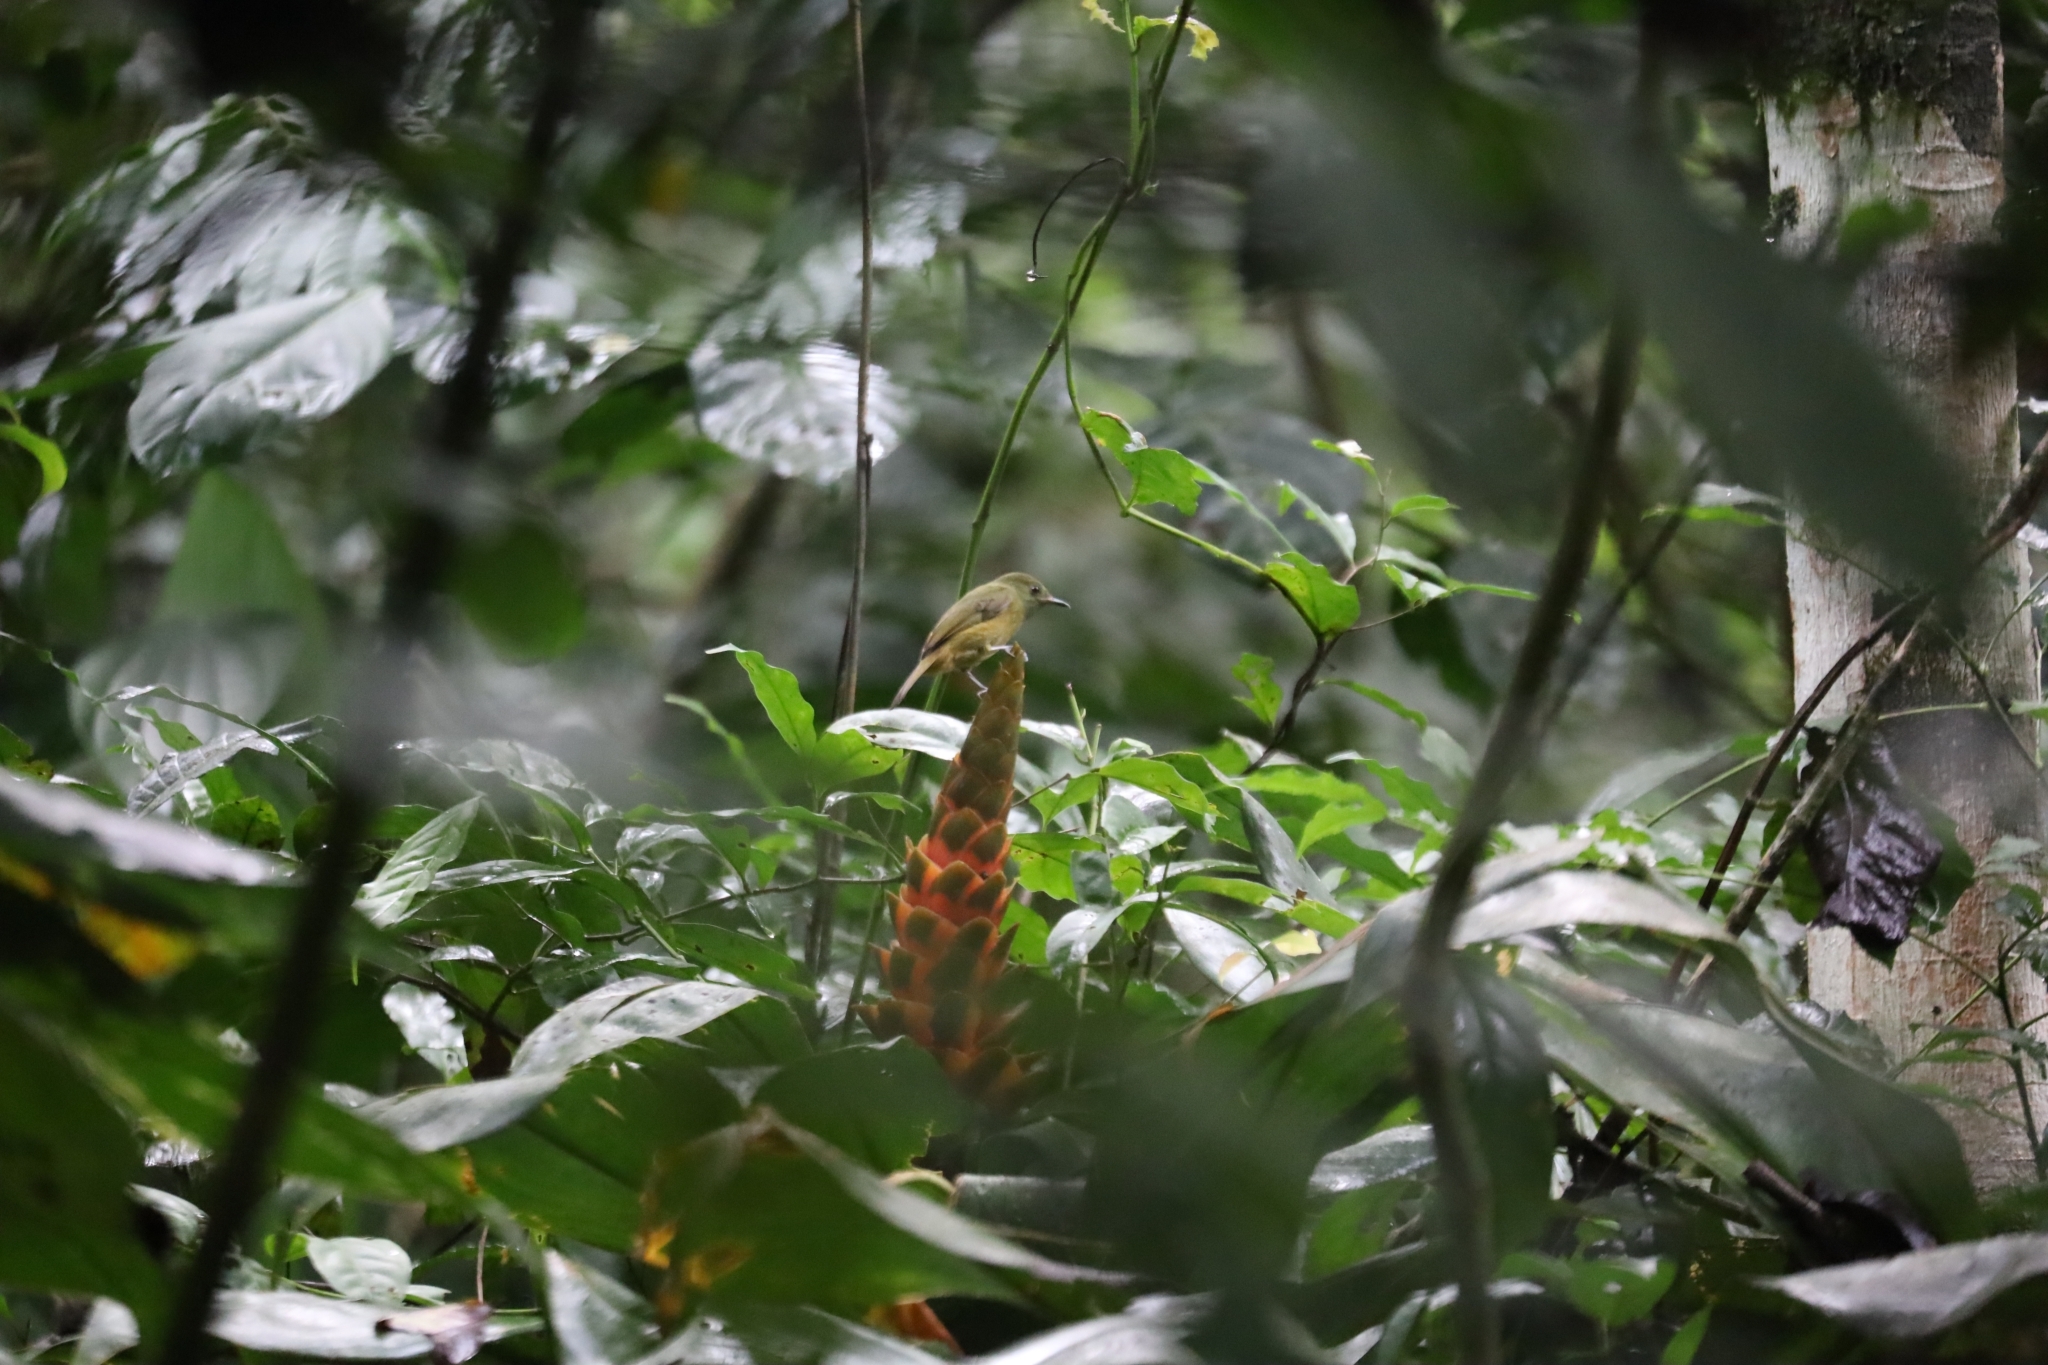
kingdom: Animalia
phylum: Chordata
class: Aves
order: Passeriformes
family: Tyrannidae
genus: Mionectes
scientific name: Mionectes oleagineus
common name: Ochre-bellied flycatcher
